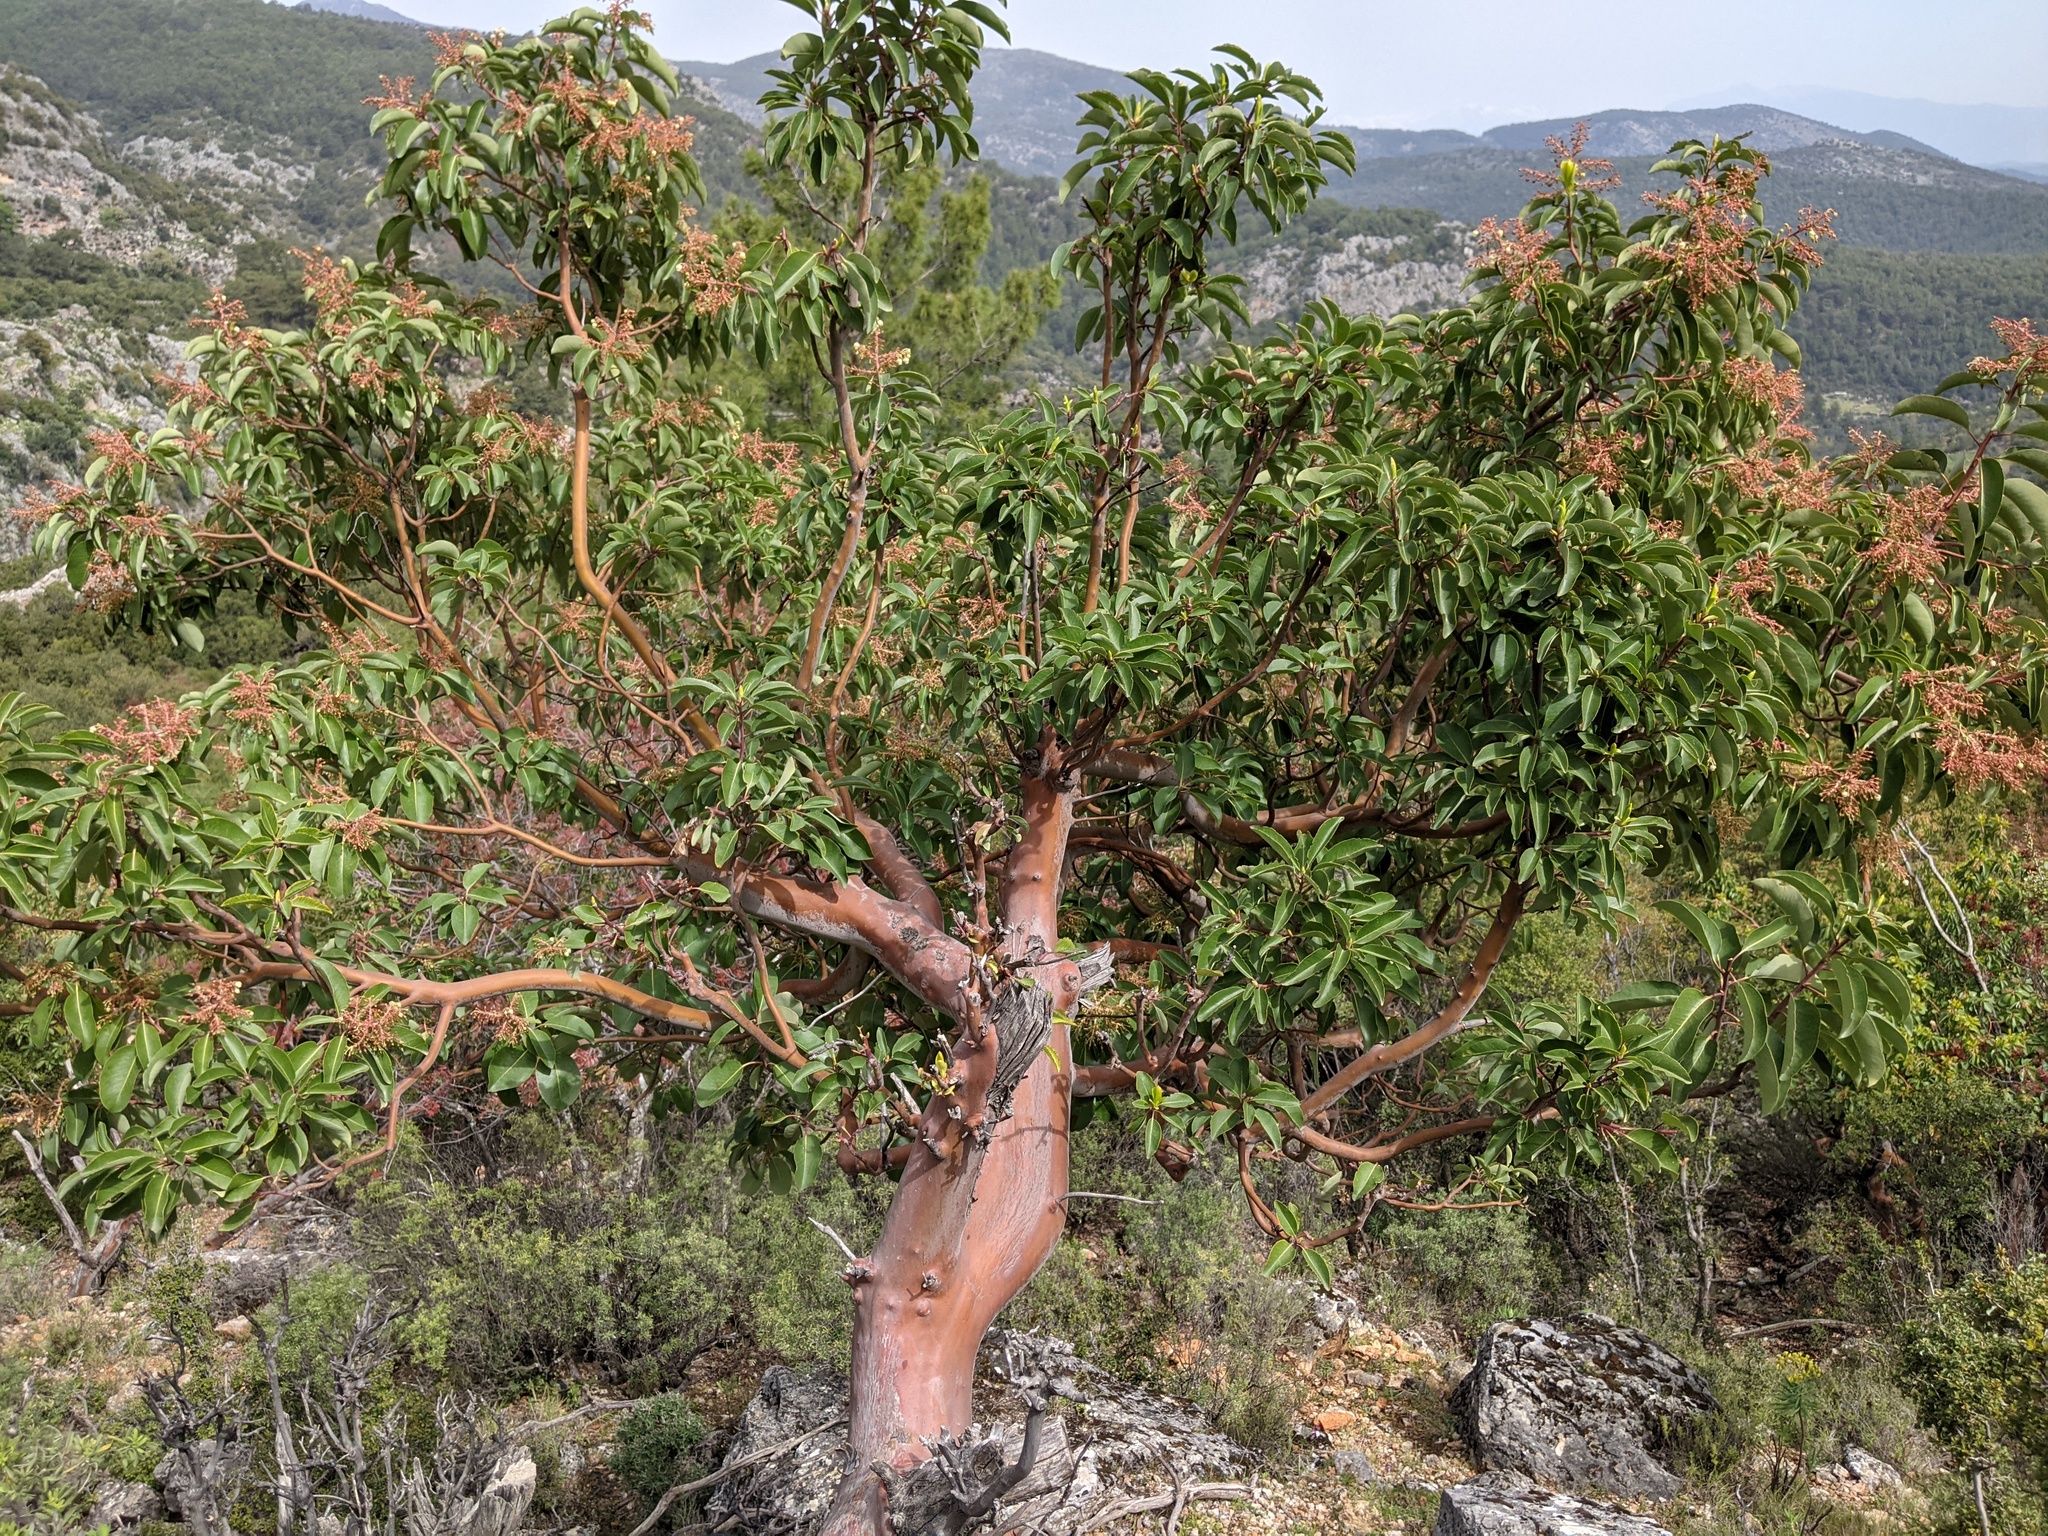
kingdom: Plantae
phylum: Tracheophyta
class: Magnoliopsida
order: Ericales
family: Ericaceae
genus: Arbutus
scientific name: Arbutus andrachne
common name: Greek strawberry tree
